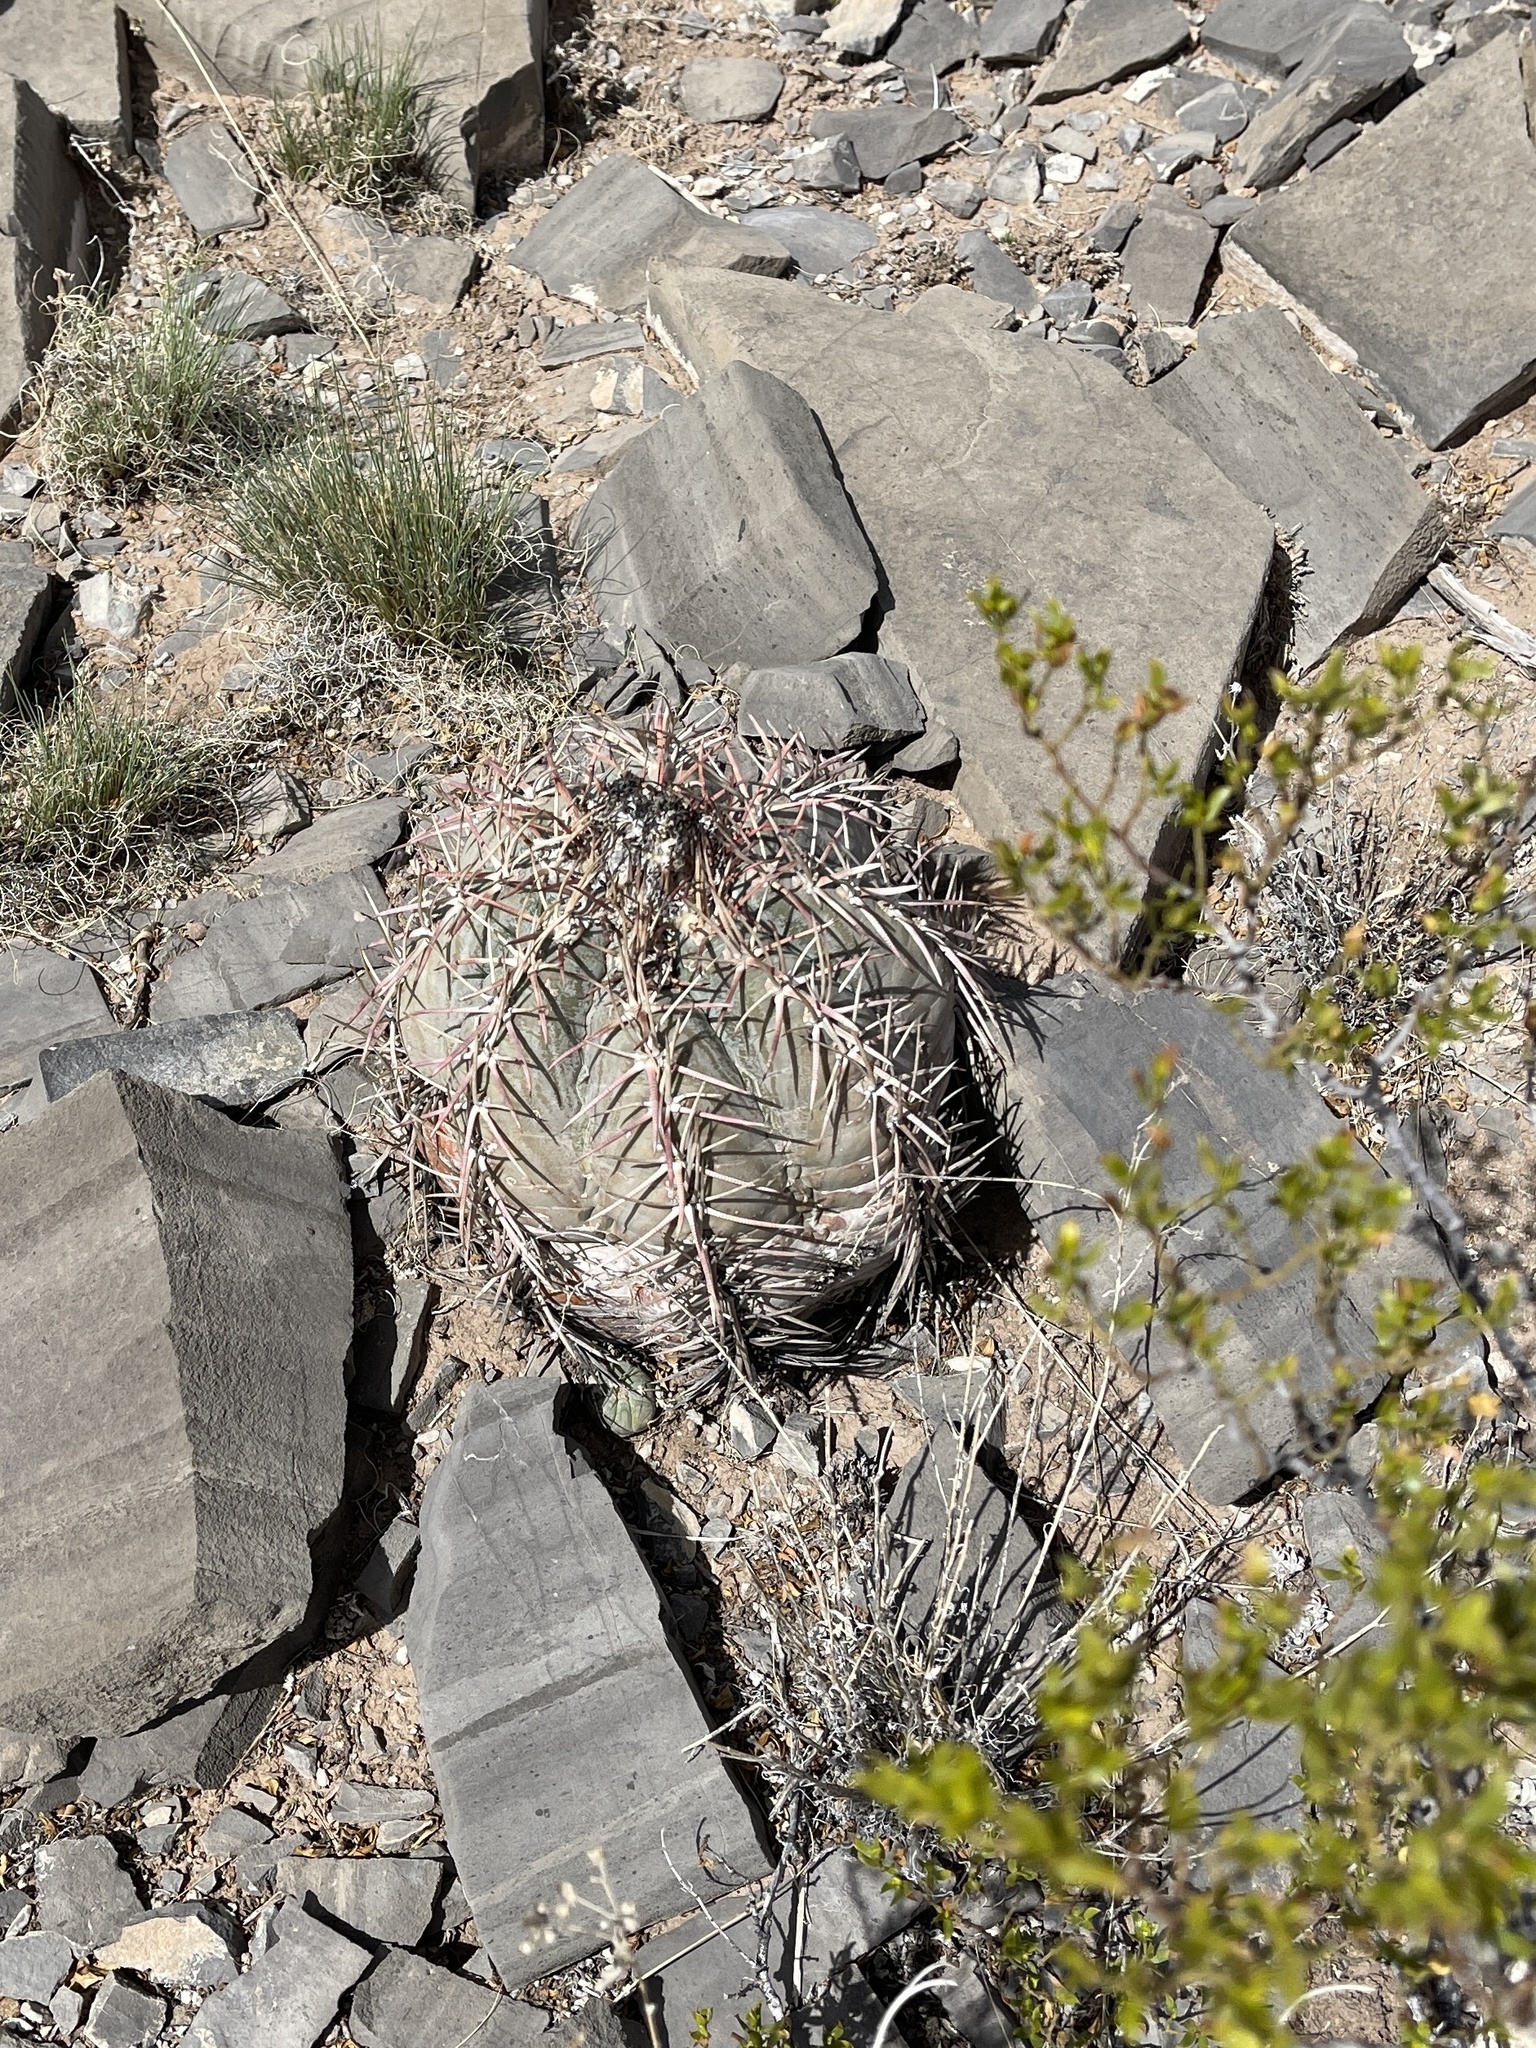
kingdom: Plantae
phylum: Tracheophyta
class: Magnoliopsida
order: Caryophyllales
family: Cactaceae
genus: Echinocactus
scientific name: Echinocactus horizonthalonius
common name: Devilshead
